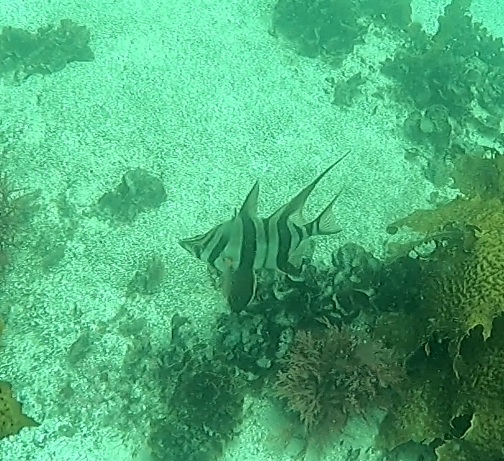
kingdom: Animalia
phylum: Chordata
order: Perciformes
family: Enoplosidae
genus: Enoplosus
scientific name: Enoplosus armatus
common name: Old wife
